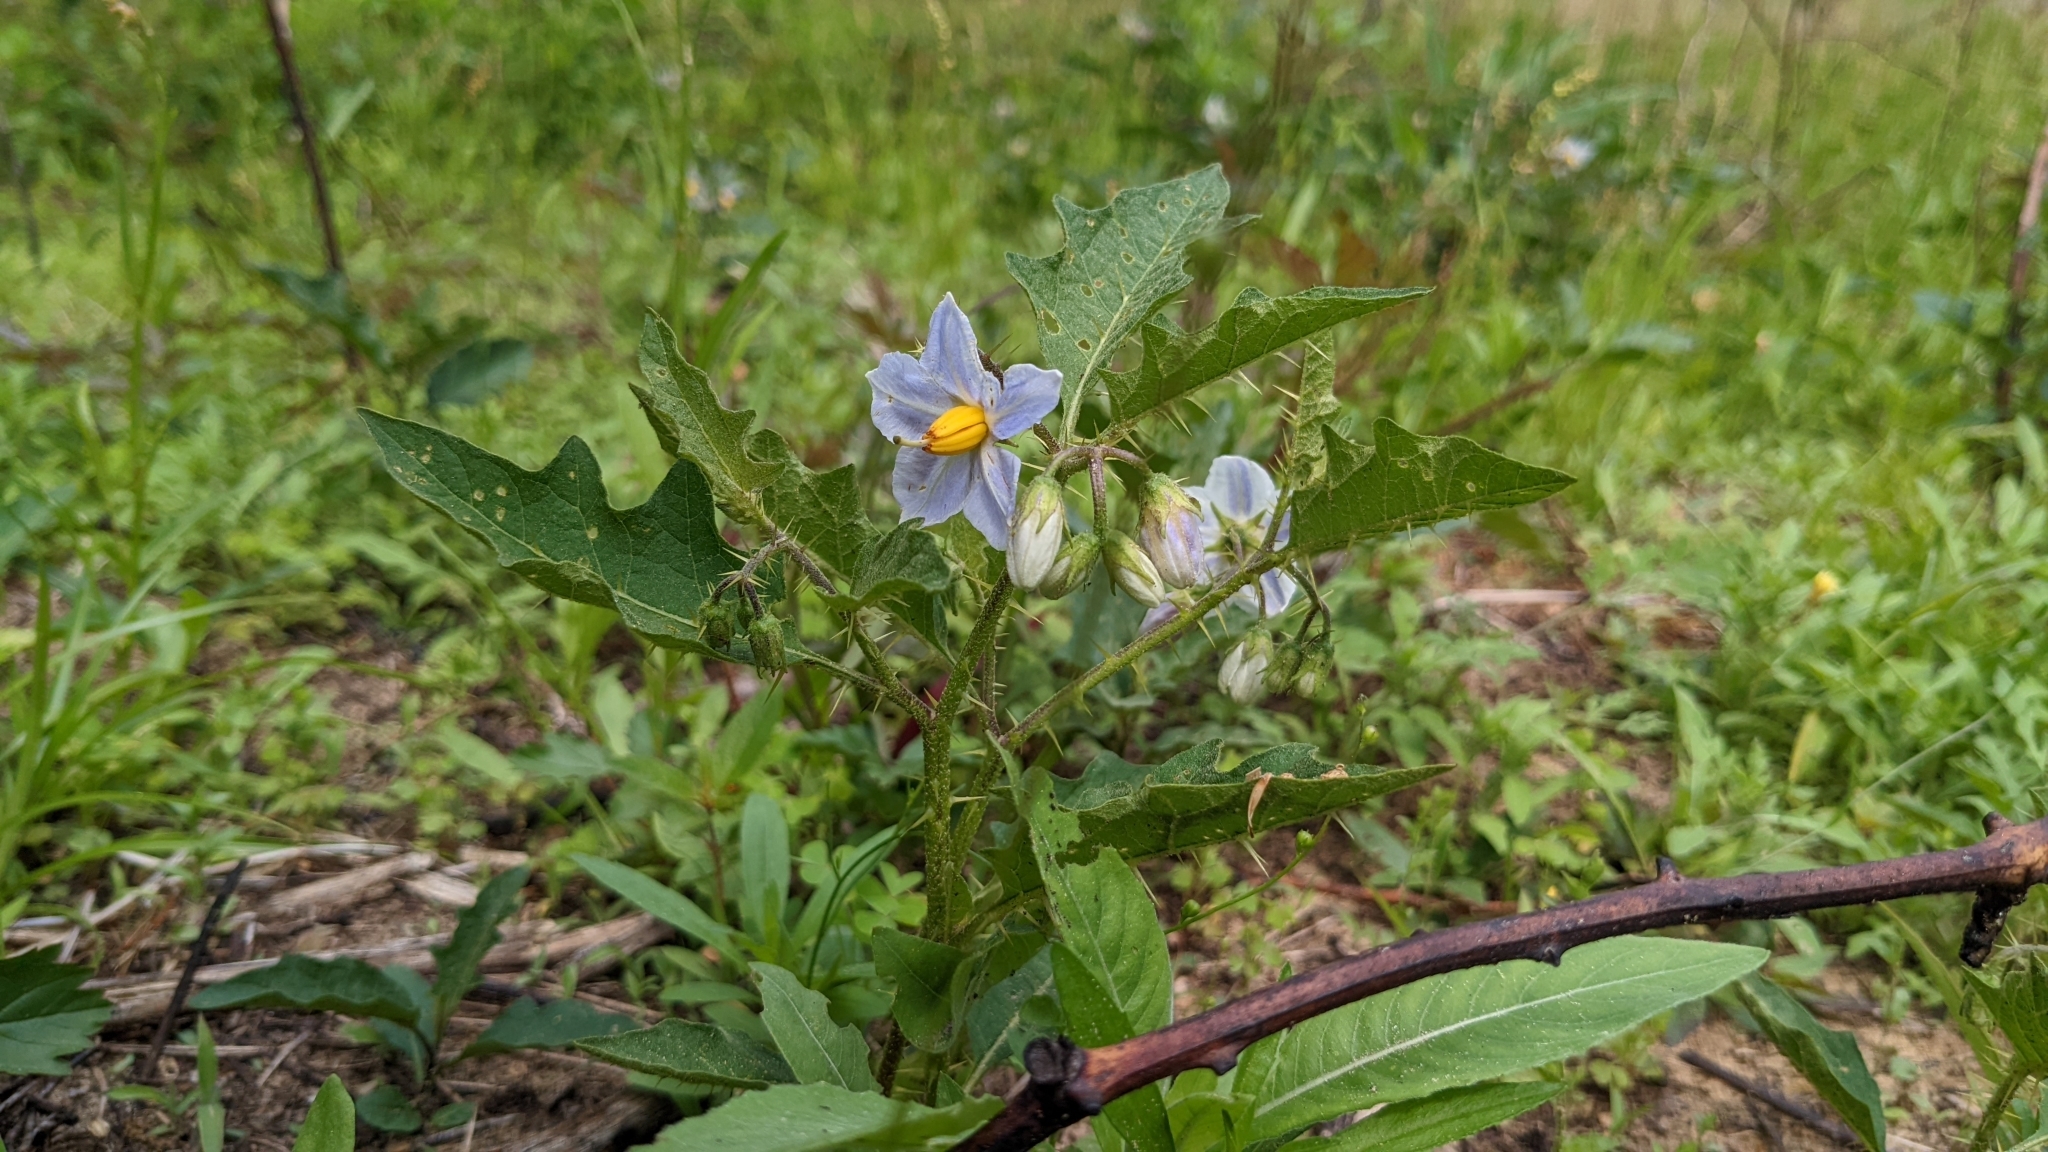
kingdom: Plantae
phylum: Tracheophyta
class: Magnoliopsida
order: Solanales
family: Solanaceae
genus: Solanum
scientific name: Solanum carolinense
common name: Horse-nettle
